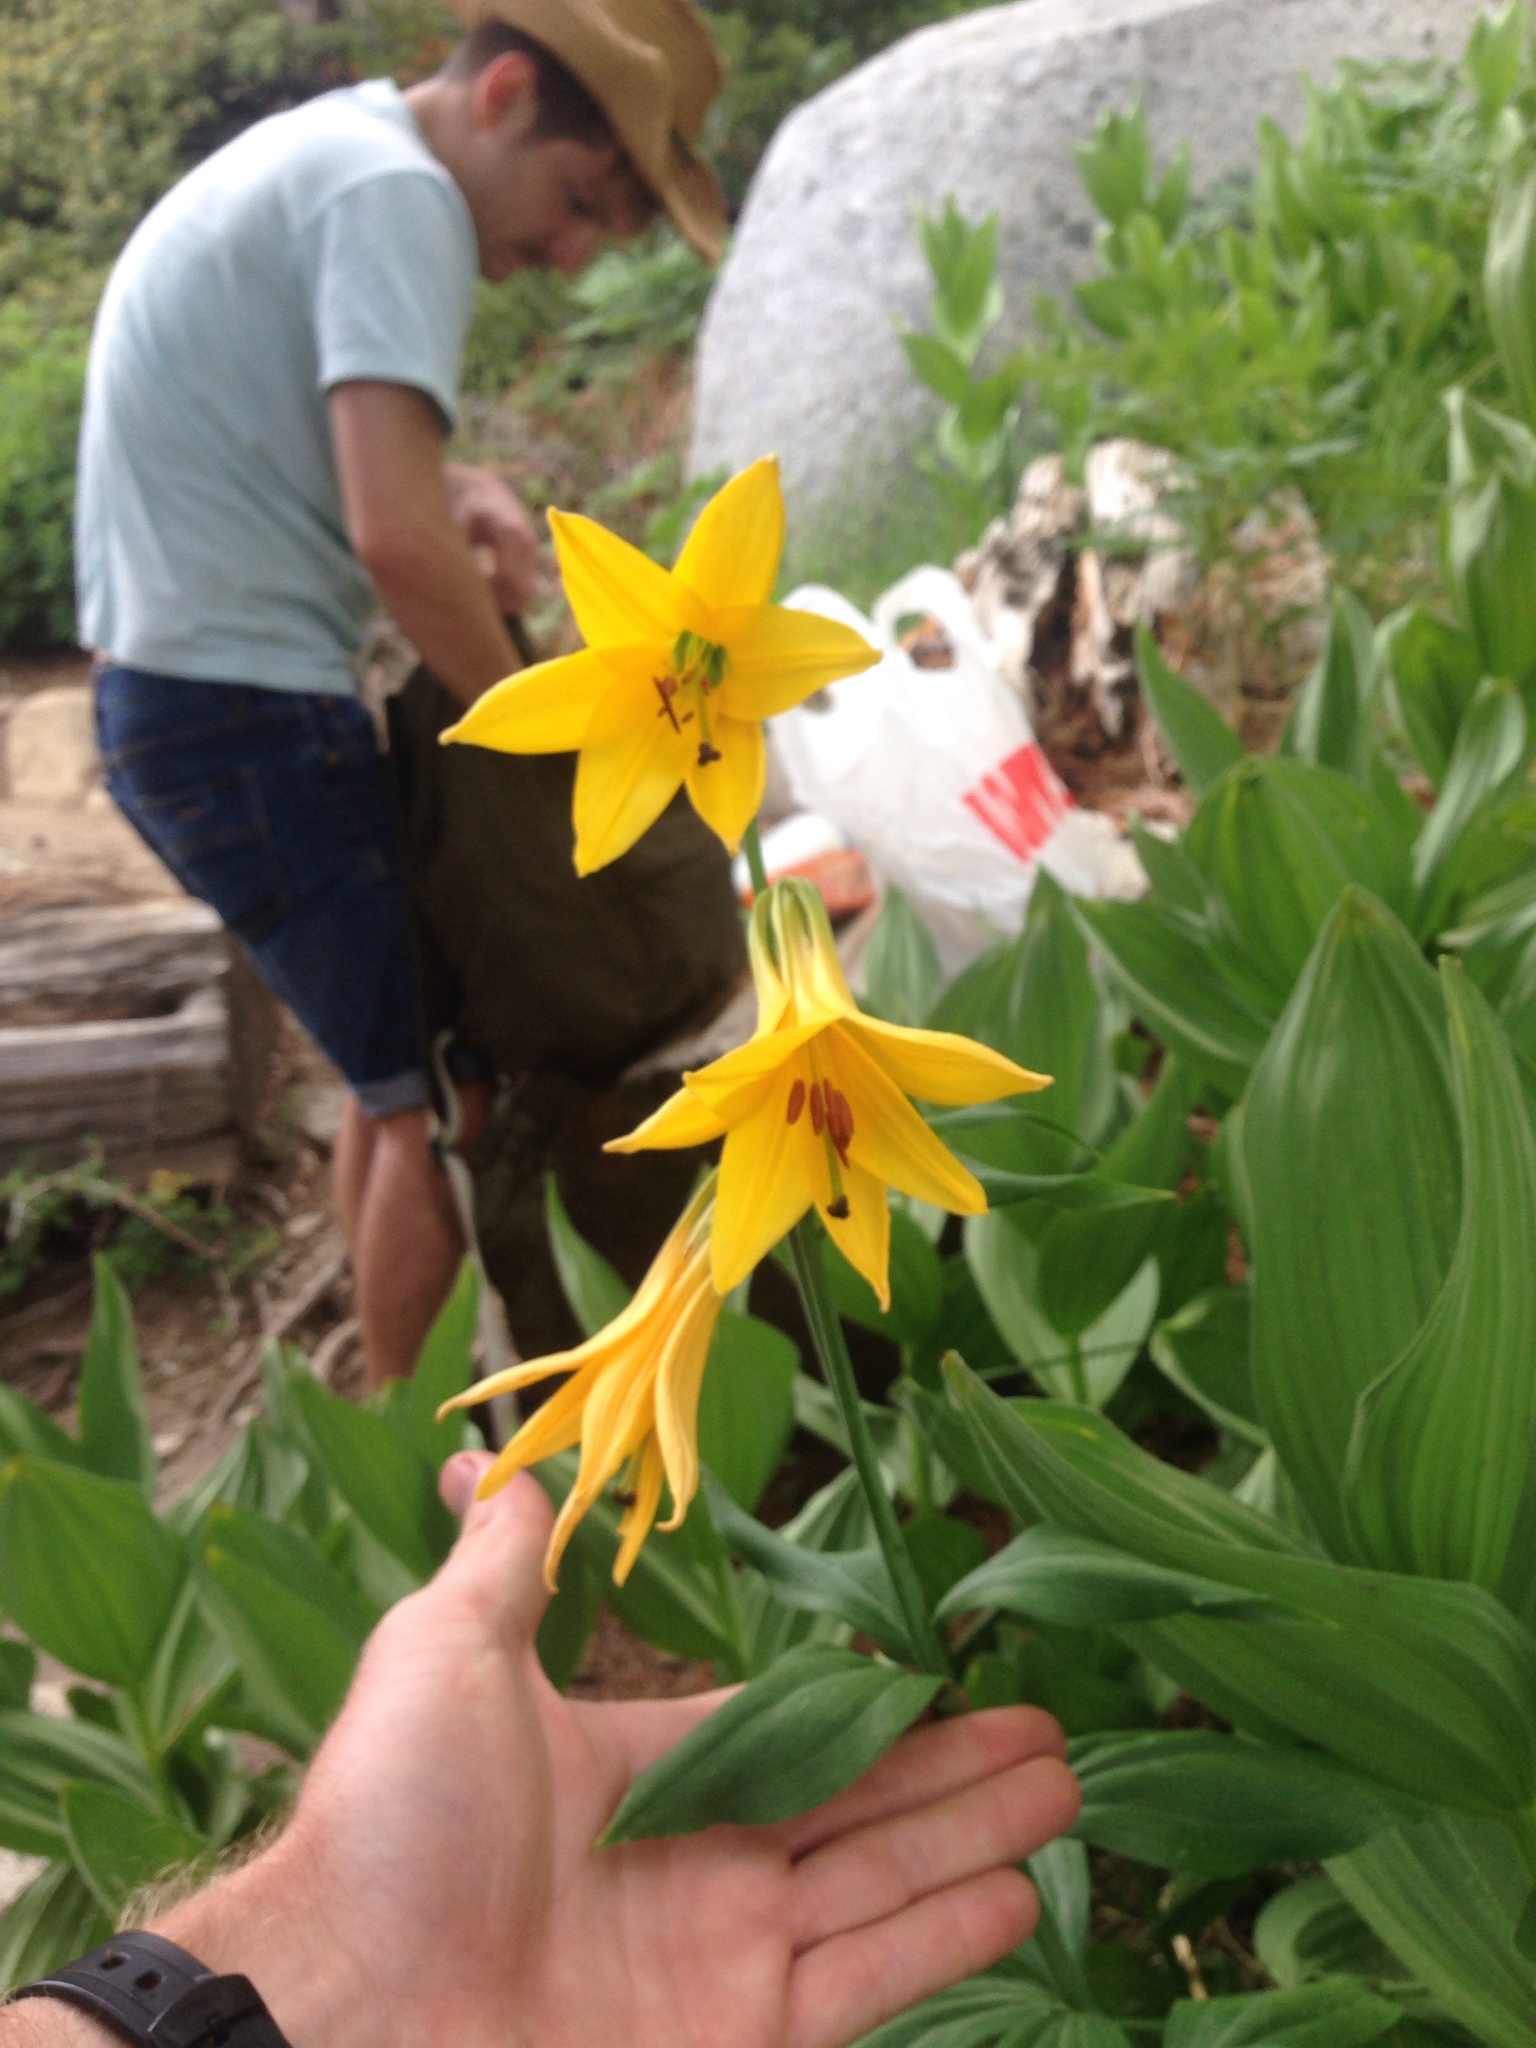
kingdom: Plantae
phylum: Tracheophyta
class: Liliopsida
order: Liliales
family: Liliaceae
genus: Lilium
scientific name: Lilium parryi
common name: Lemon lily
